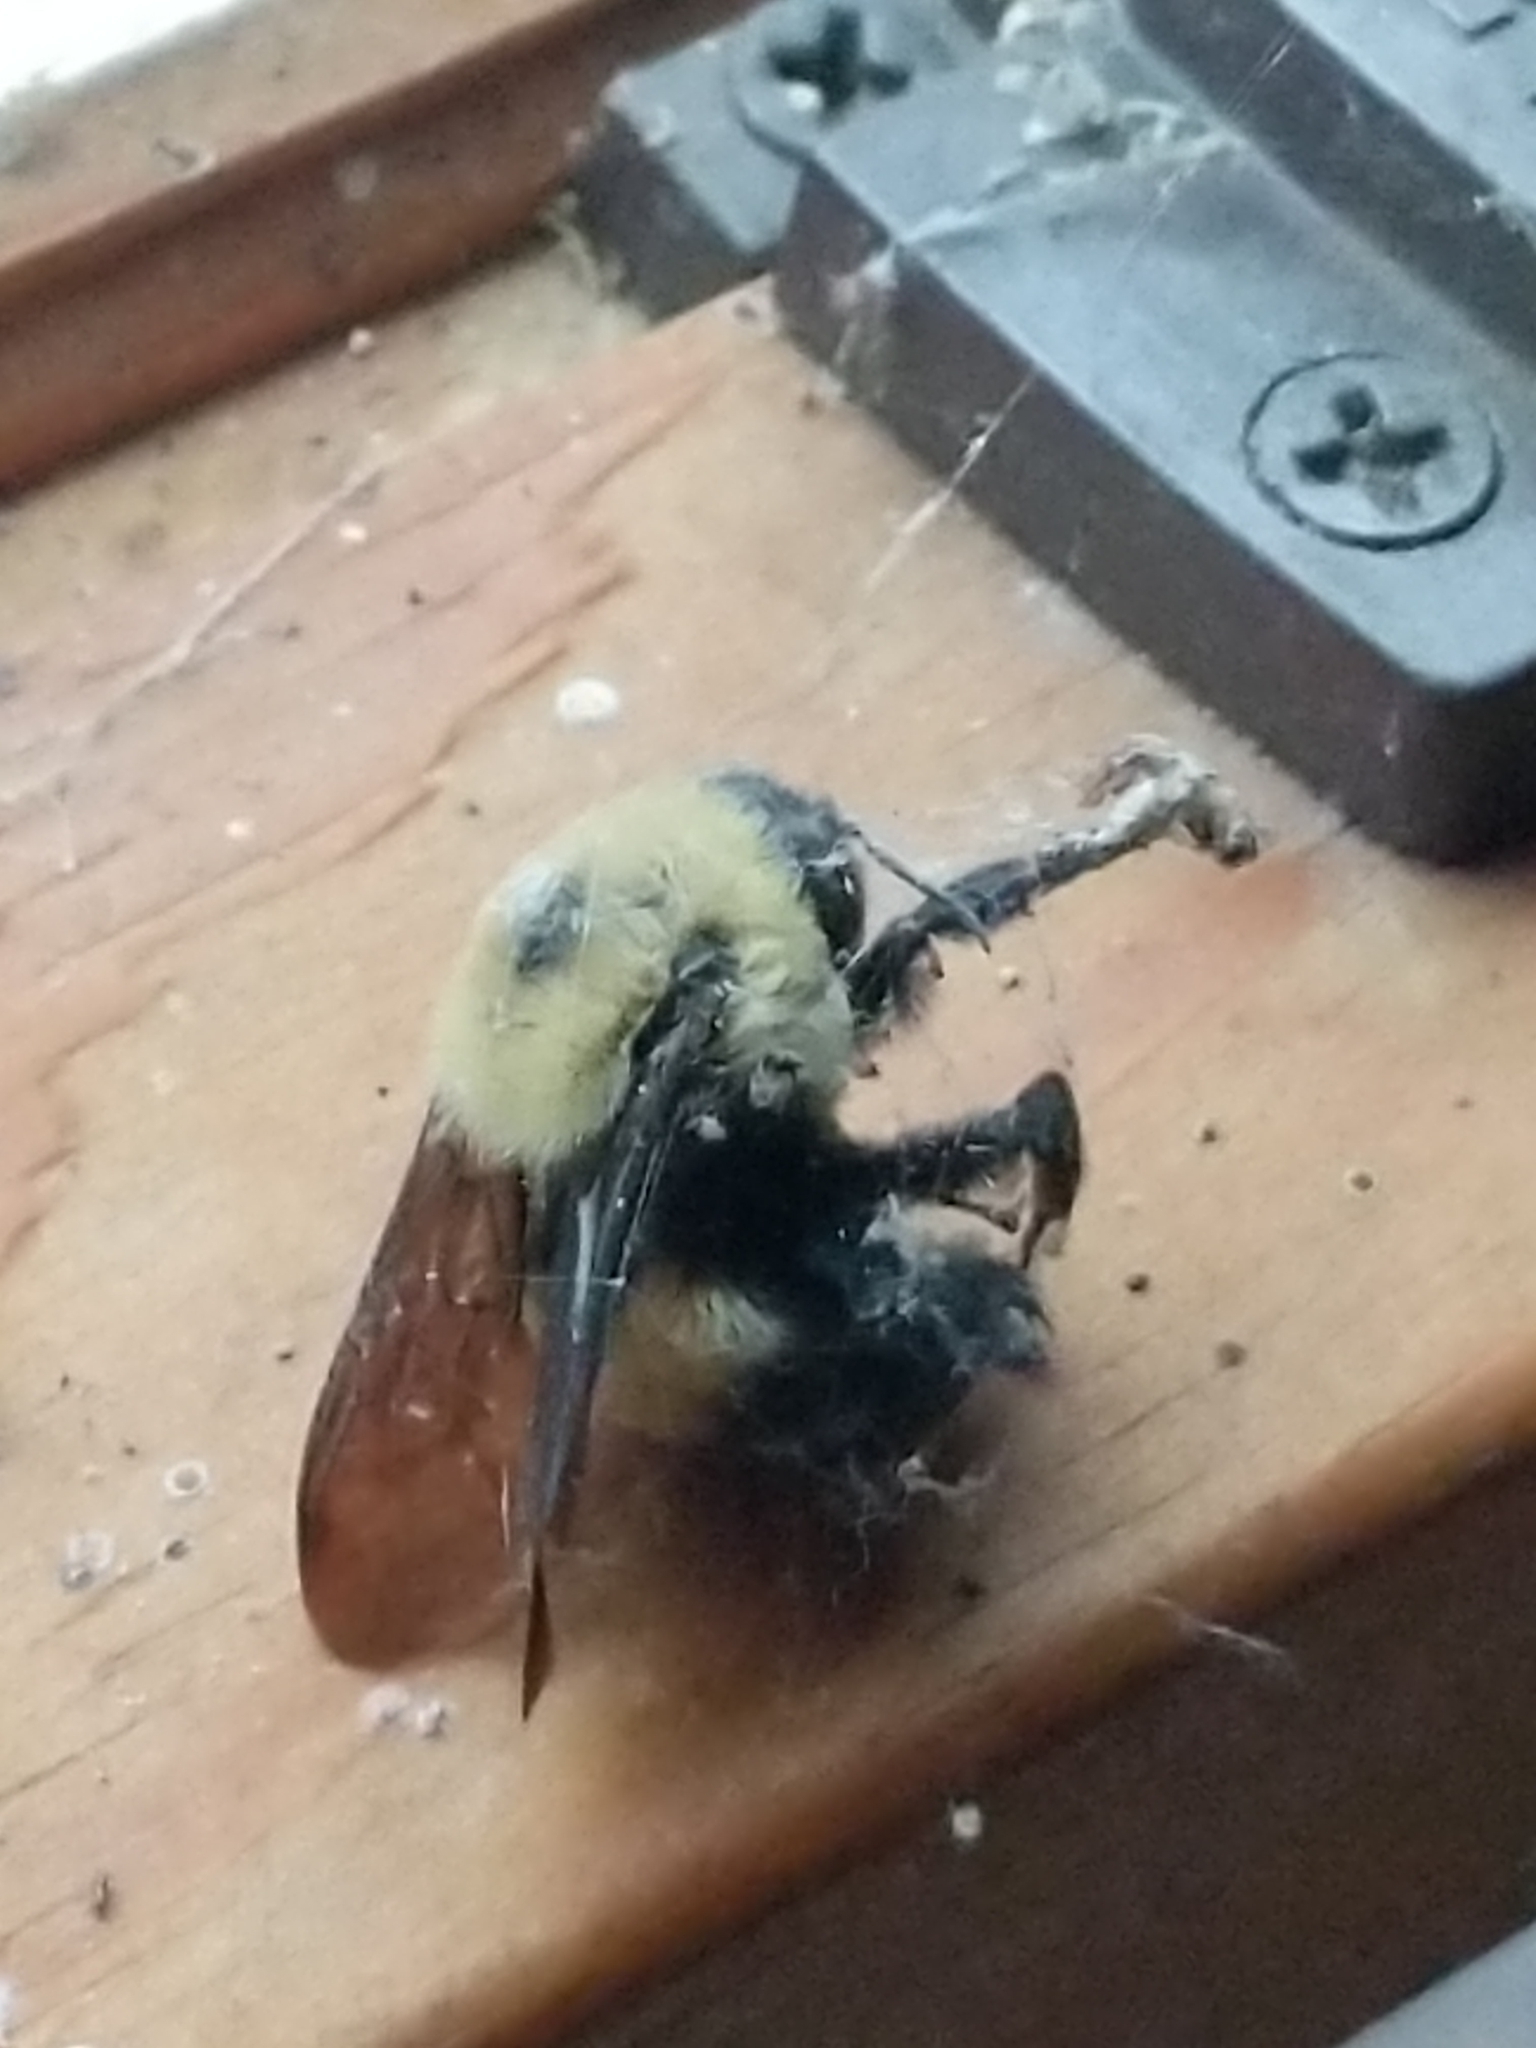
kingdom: Animalia
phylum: Arthropoda
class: Insecta
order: Hymenoptera
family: Apidae
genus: Bombus
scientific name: Bombus griseocollis
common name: Brown-belted bumble bee
